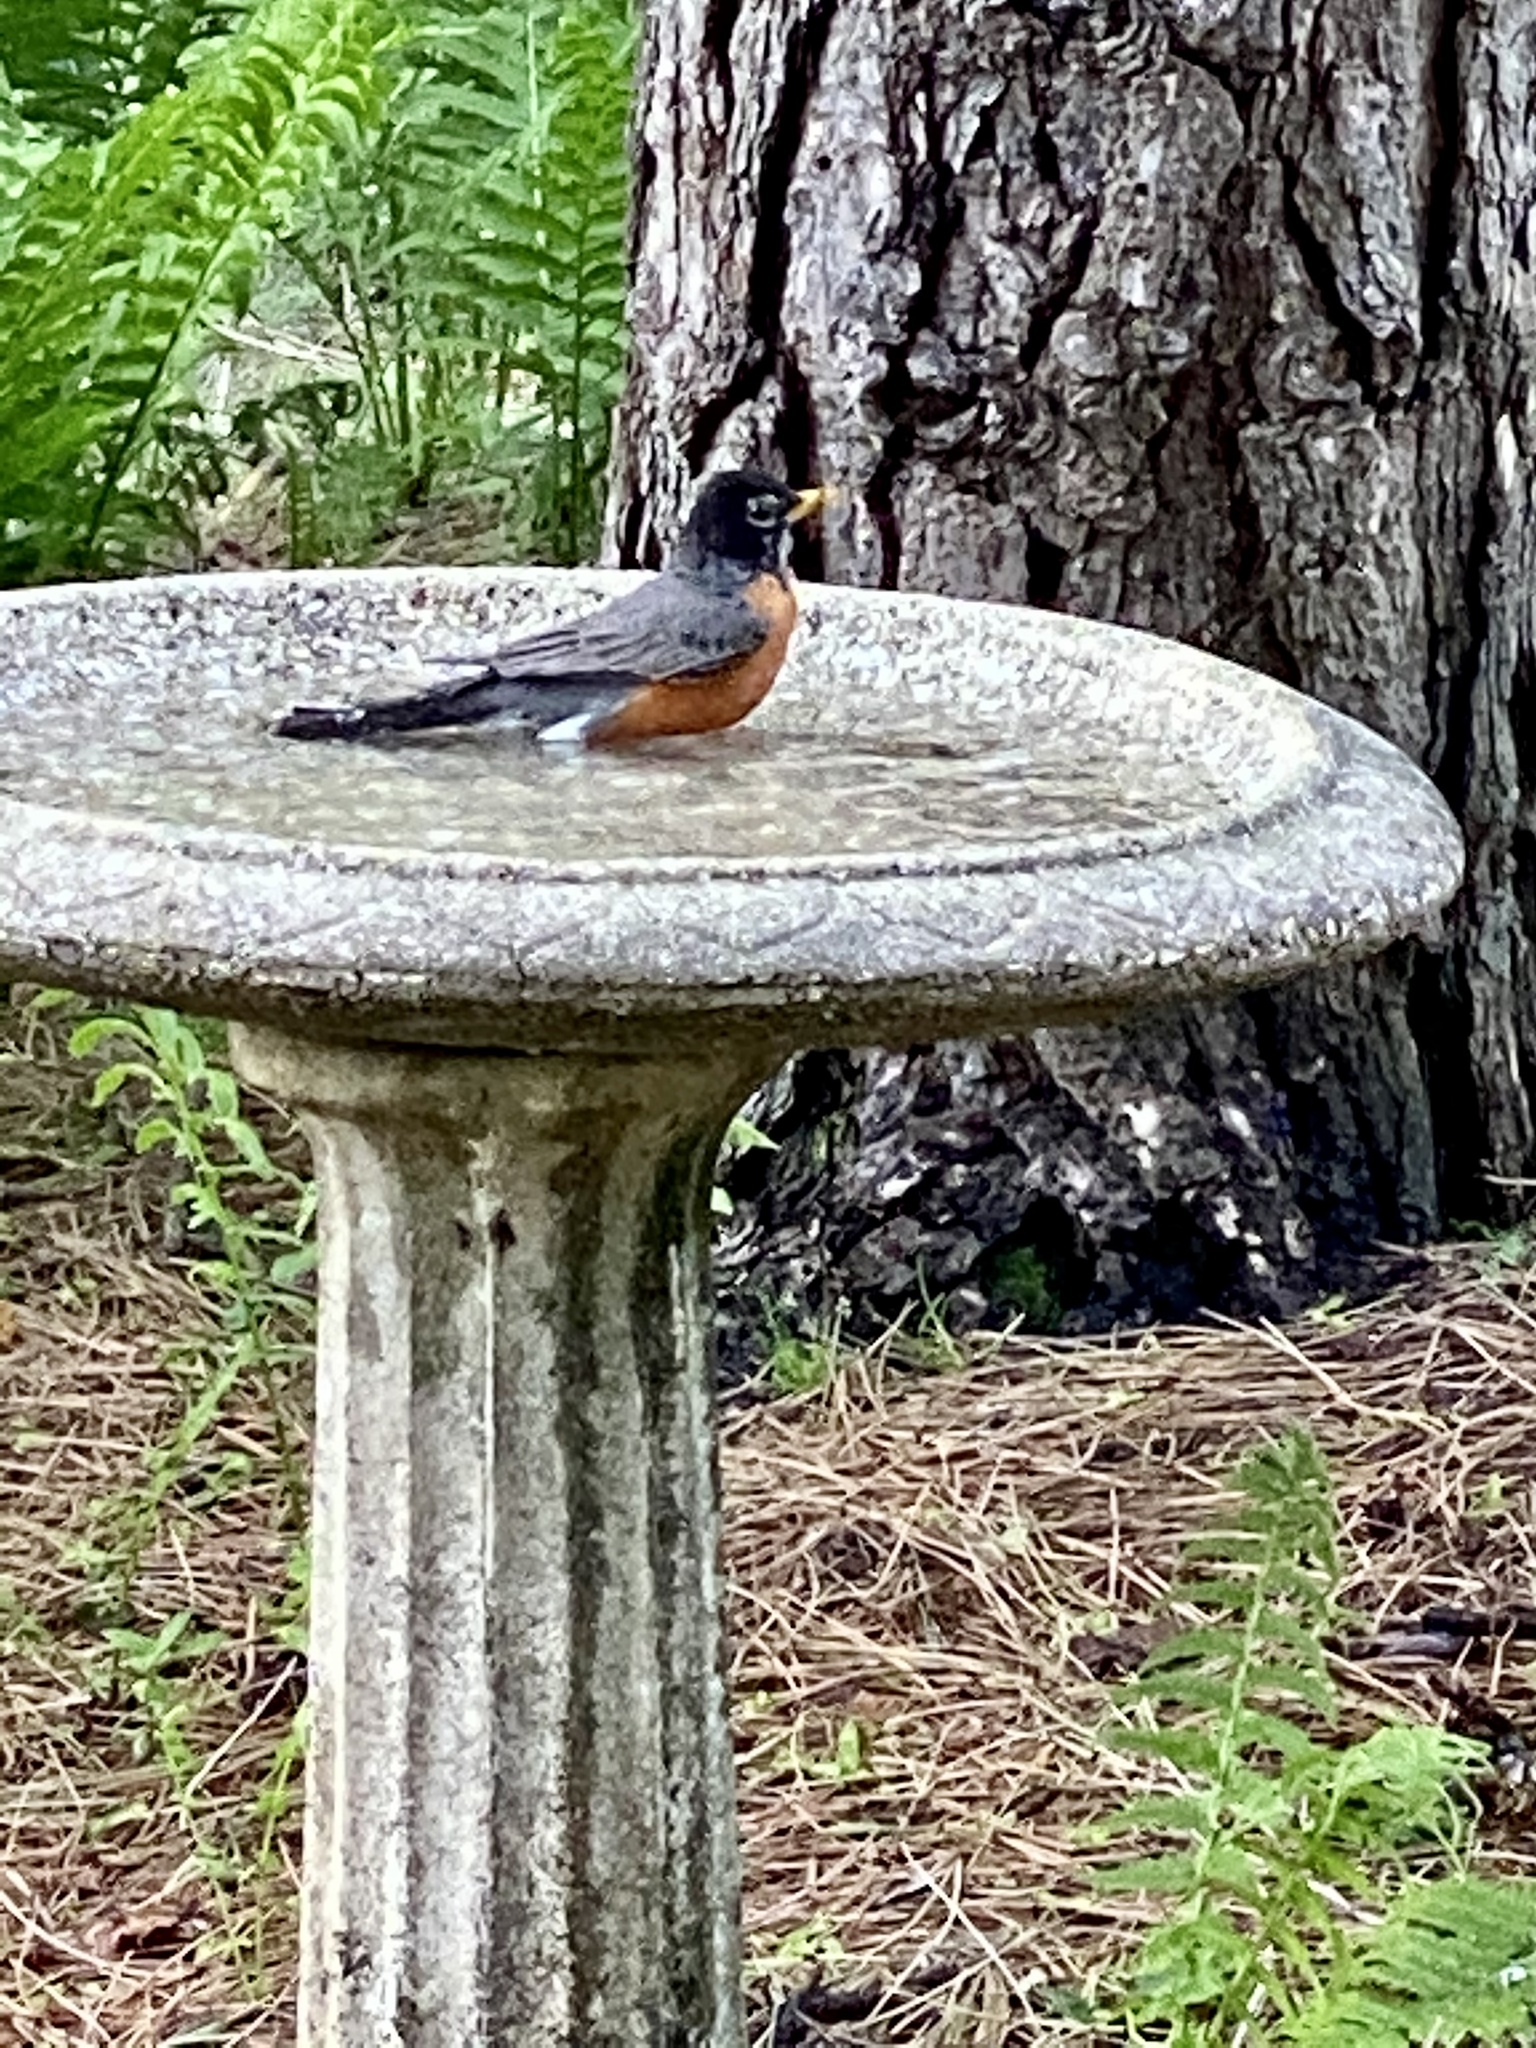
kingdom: Animalia
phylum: Chordata
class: Aves
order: Passeriformes
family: Turdidae
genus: Turdus
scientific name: Turdus migratorius
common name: American robin
